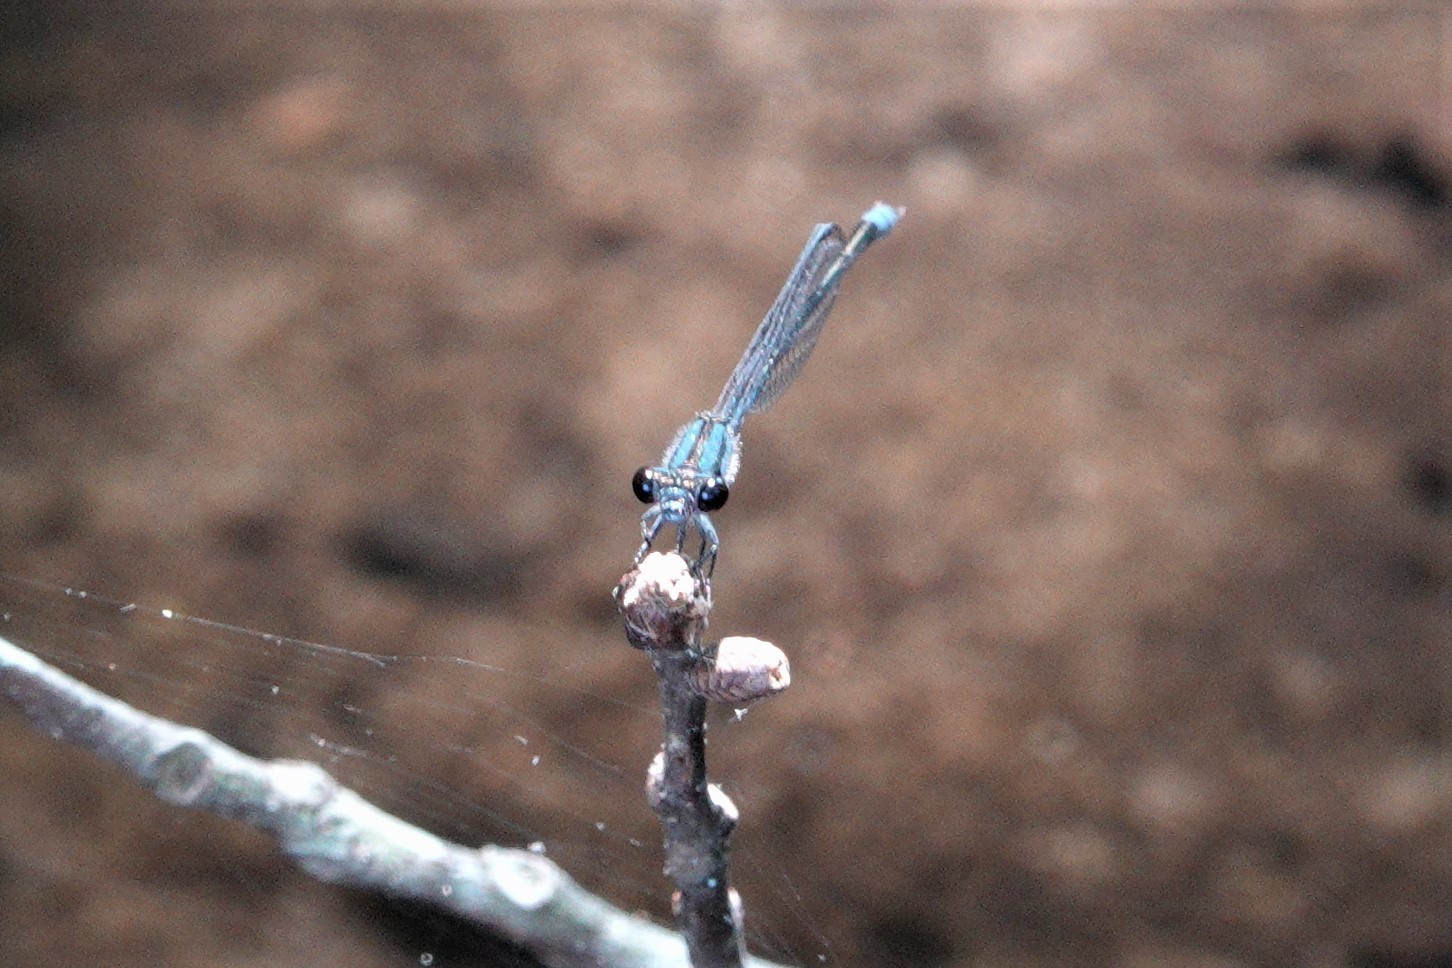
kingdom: Animalia
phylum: Arthropoda
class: Insecta
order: Odonata
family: Coenagrionidae
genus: Enallagma
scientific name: Enallagma cardenium
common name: Purple bluet
